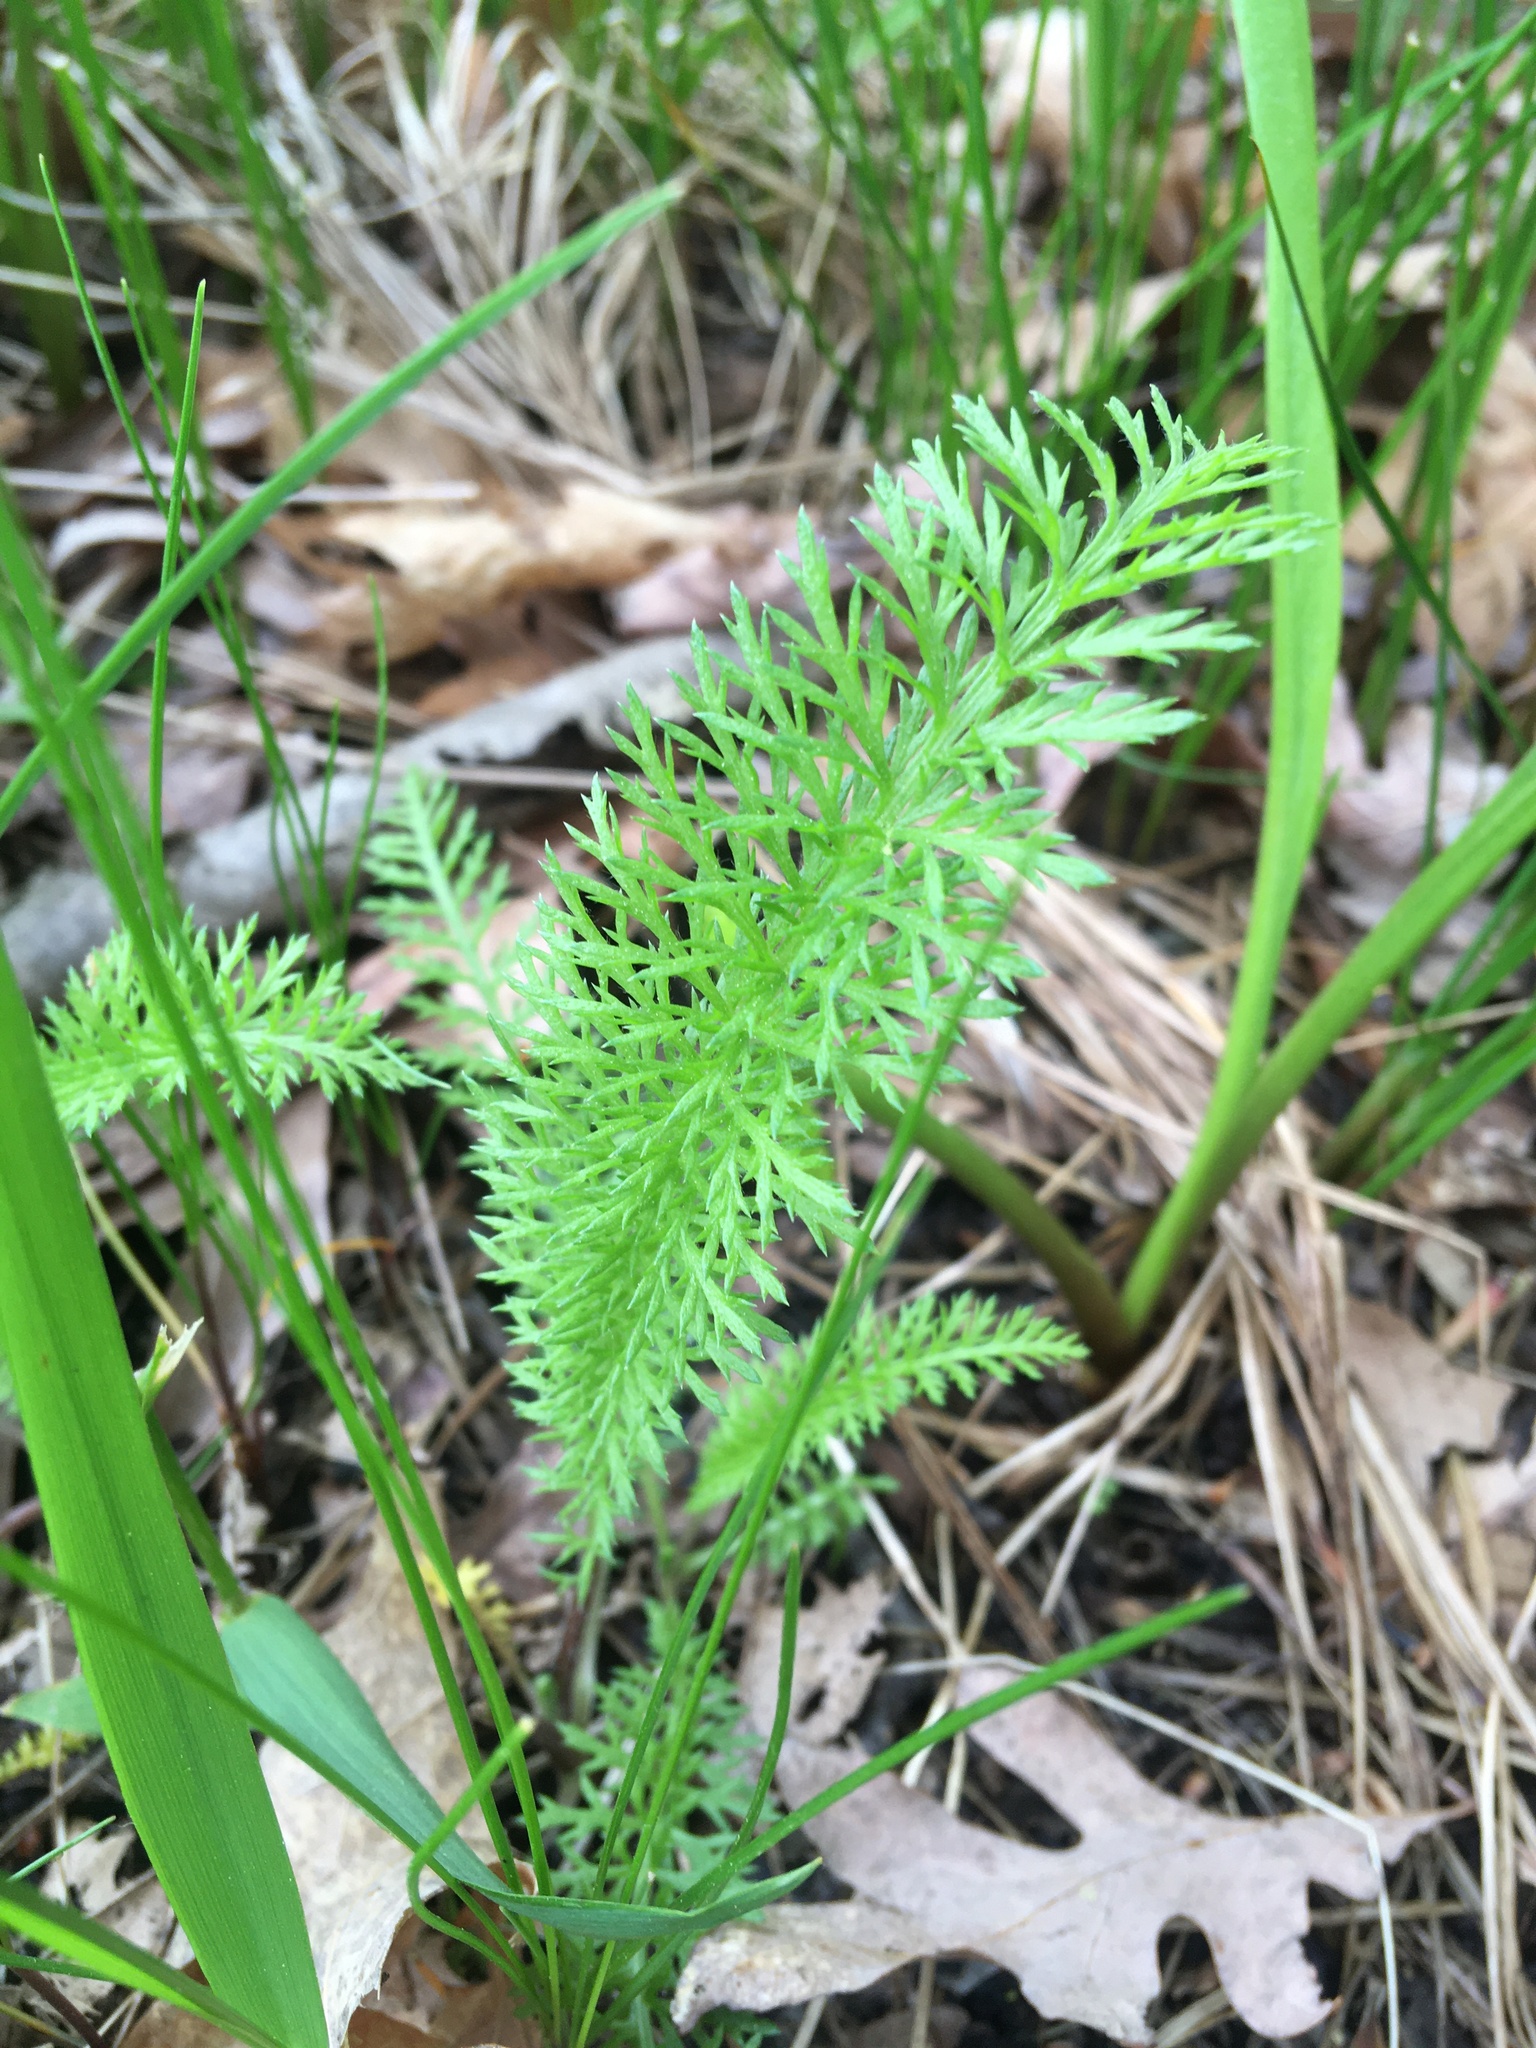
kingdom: Plantae
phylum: Tracheophyta
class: Magnoliopsida
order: Asterales
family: Asteraceae
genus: Achillea
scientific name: Achillea millefolium
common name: Yarrow
